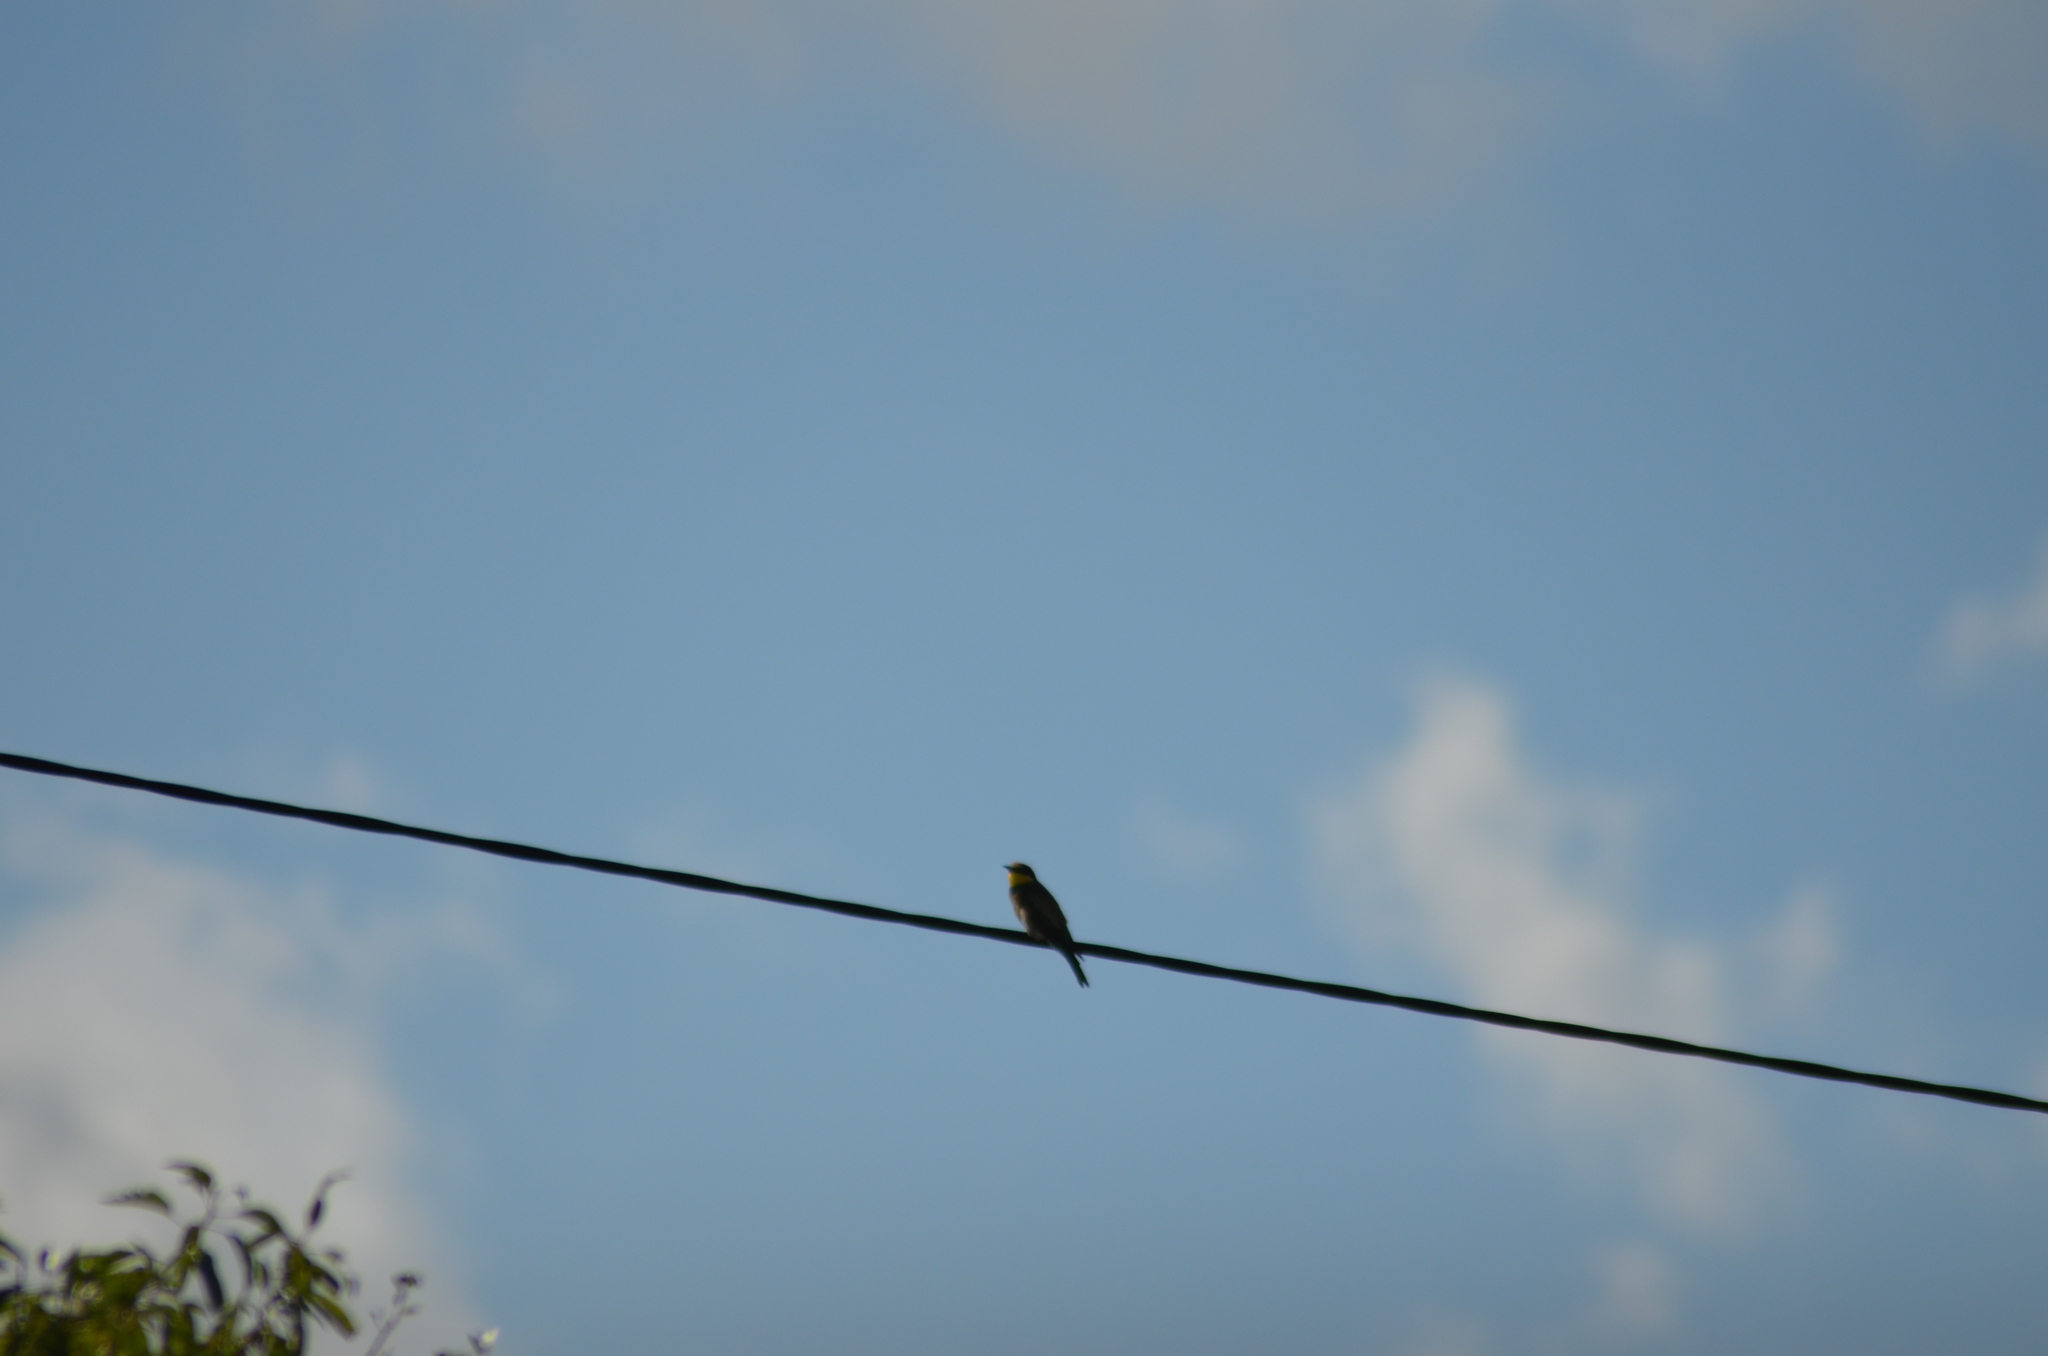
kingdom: Animalia
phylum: Chordata
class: Aves
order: Coraciiformes
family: Meropidae
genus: Merops
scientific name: Merops apiaster
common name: European bee-eater
